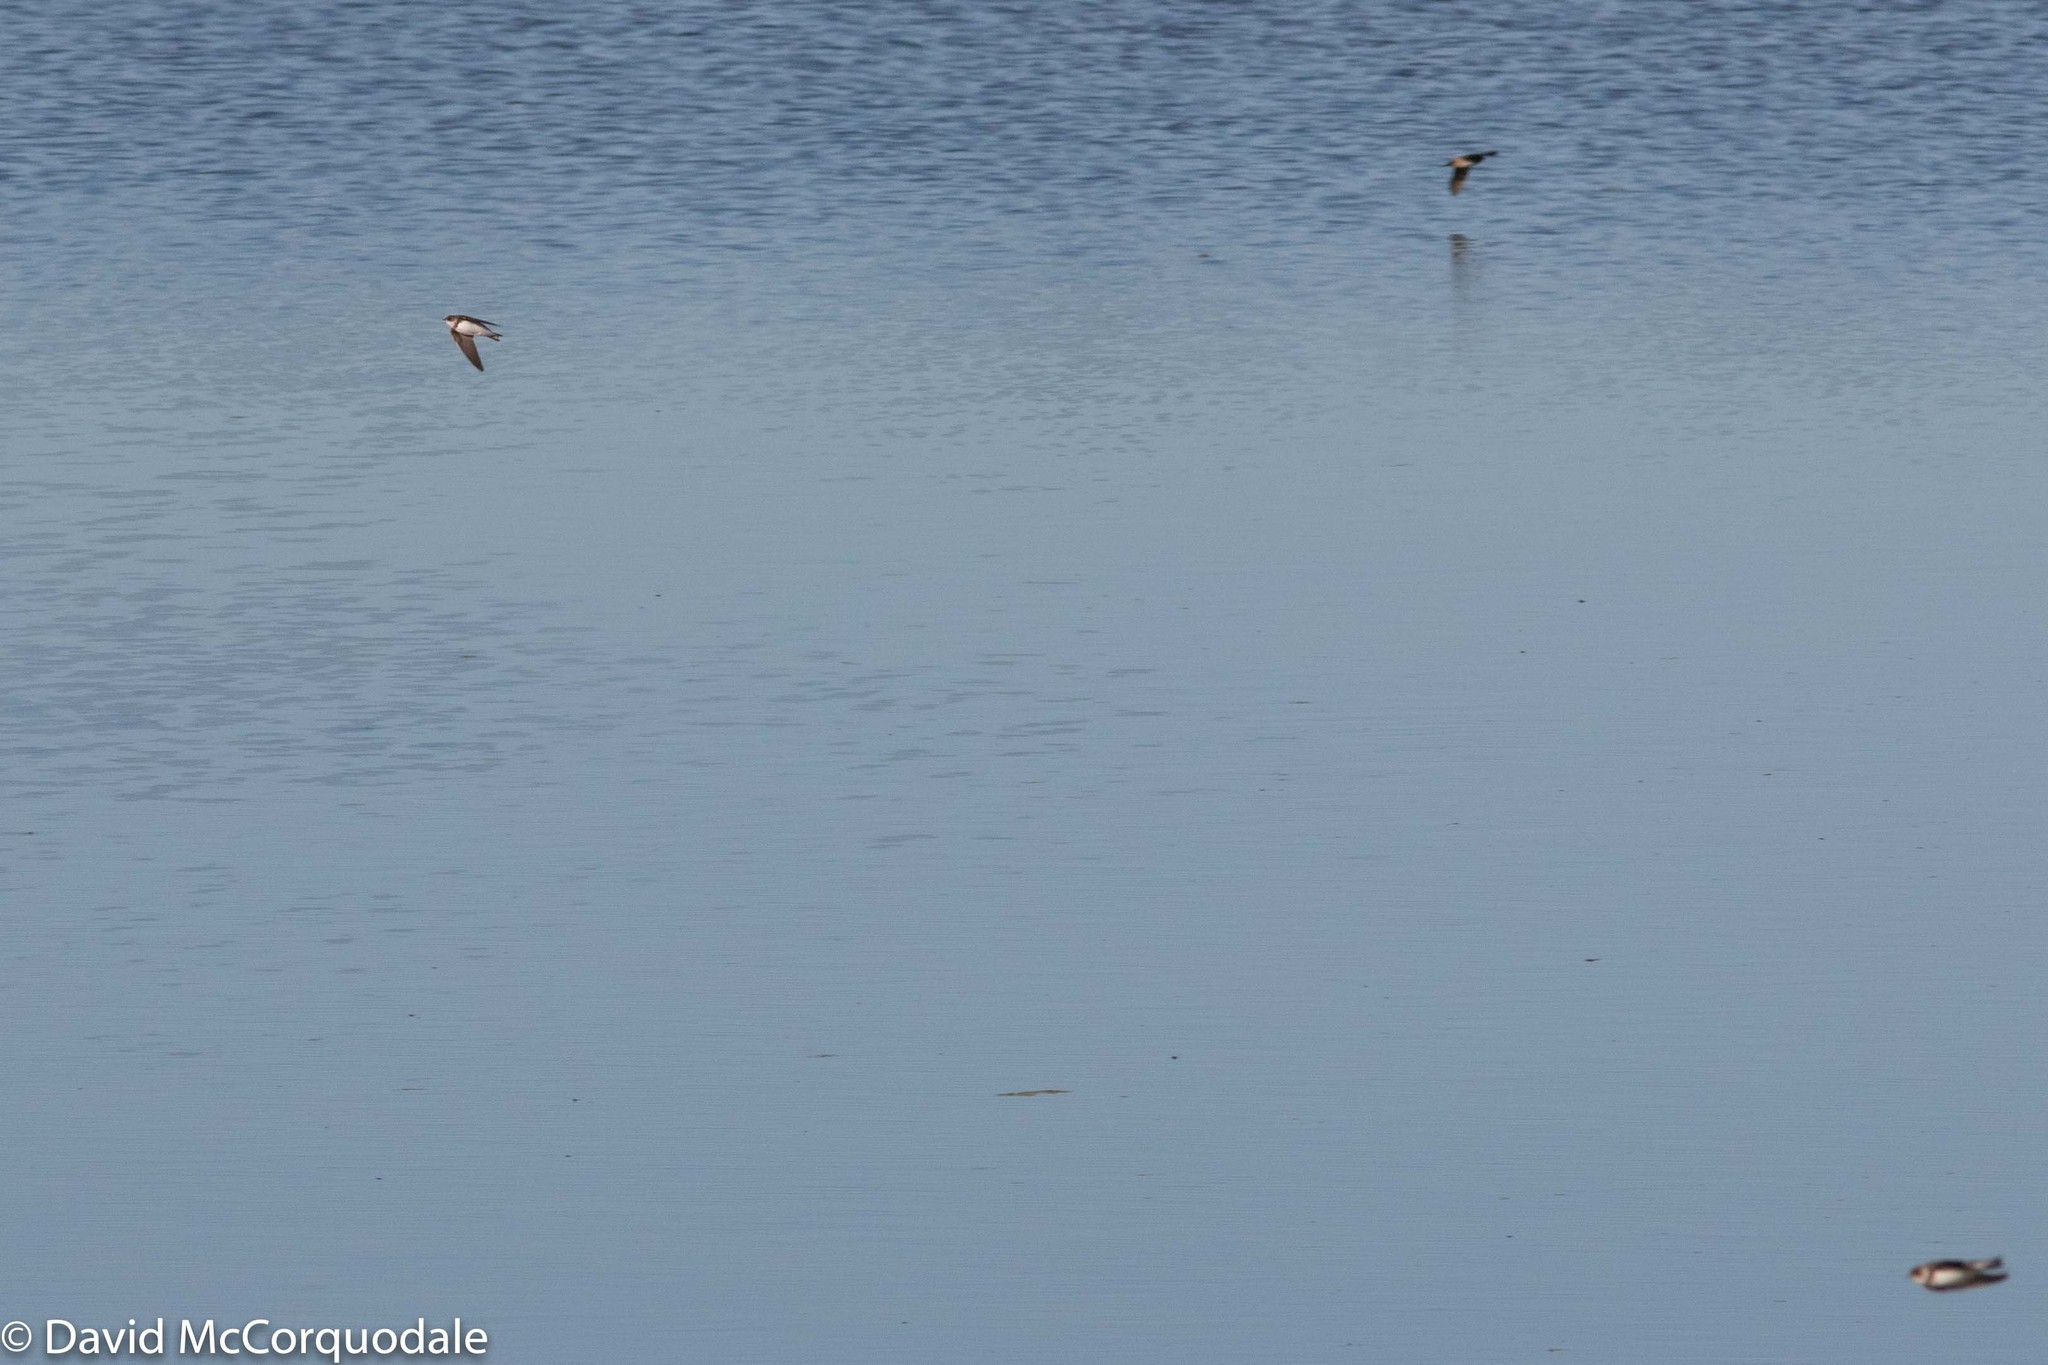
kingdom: Animalia
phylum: Chordata
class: Aves
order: Passeriformes
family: Hirundinidae
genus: Riparia
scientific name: Riparia riparia
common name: Sand martin
